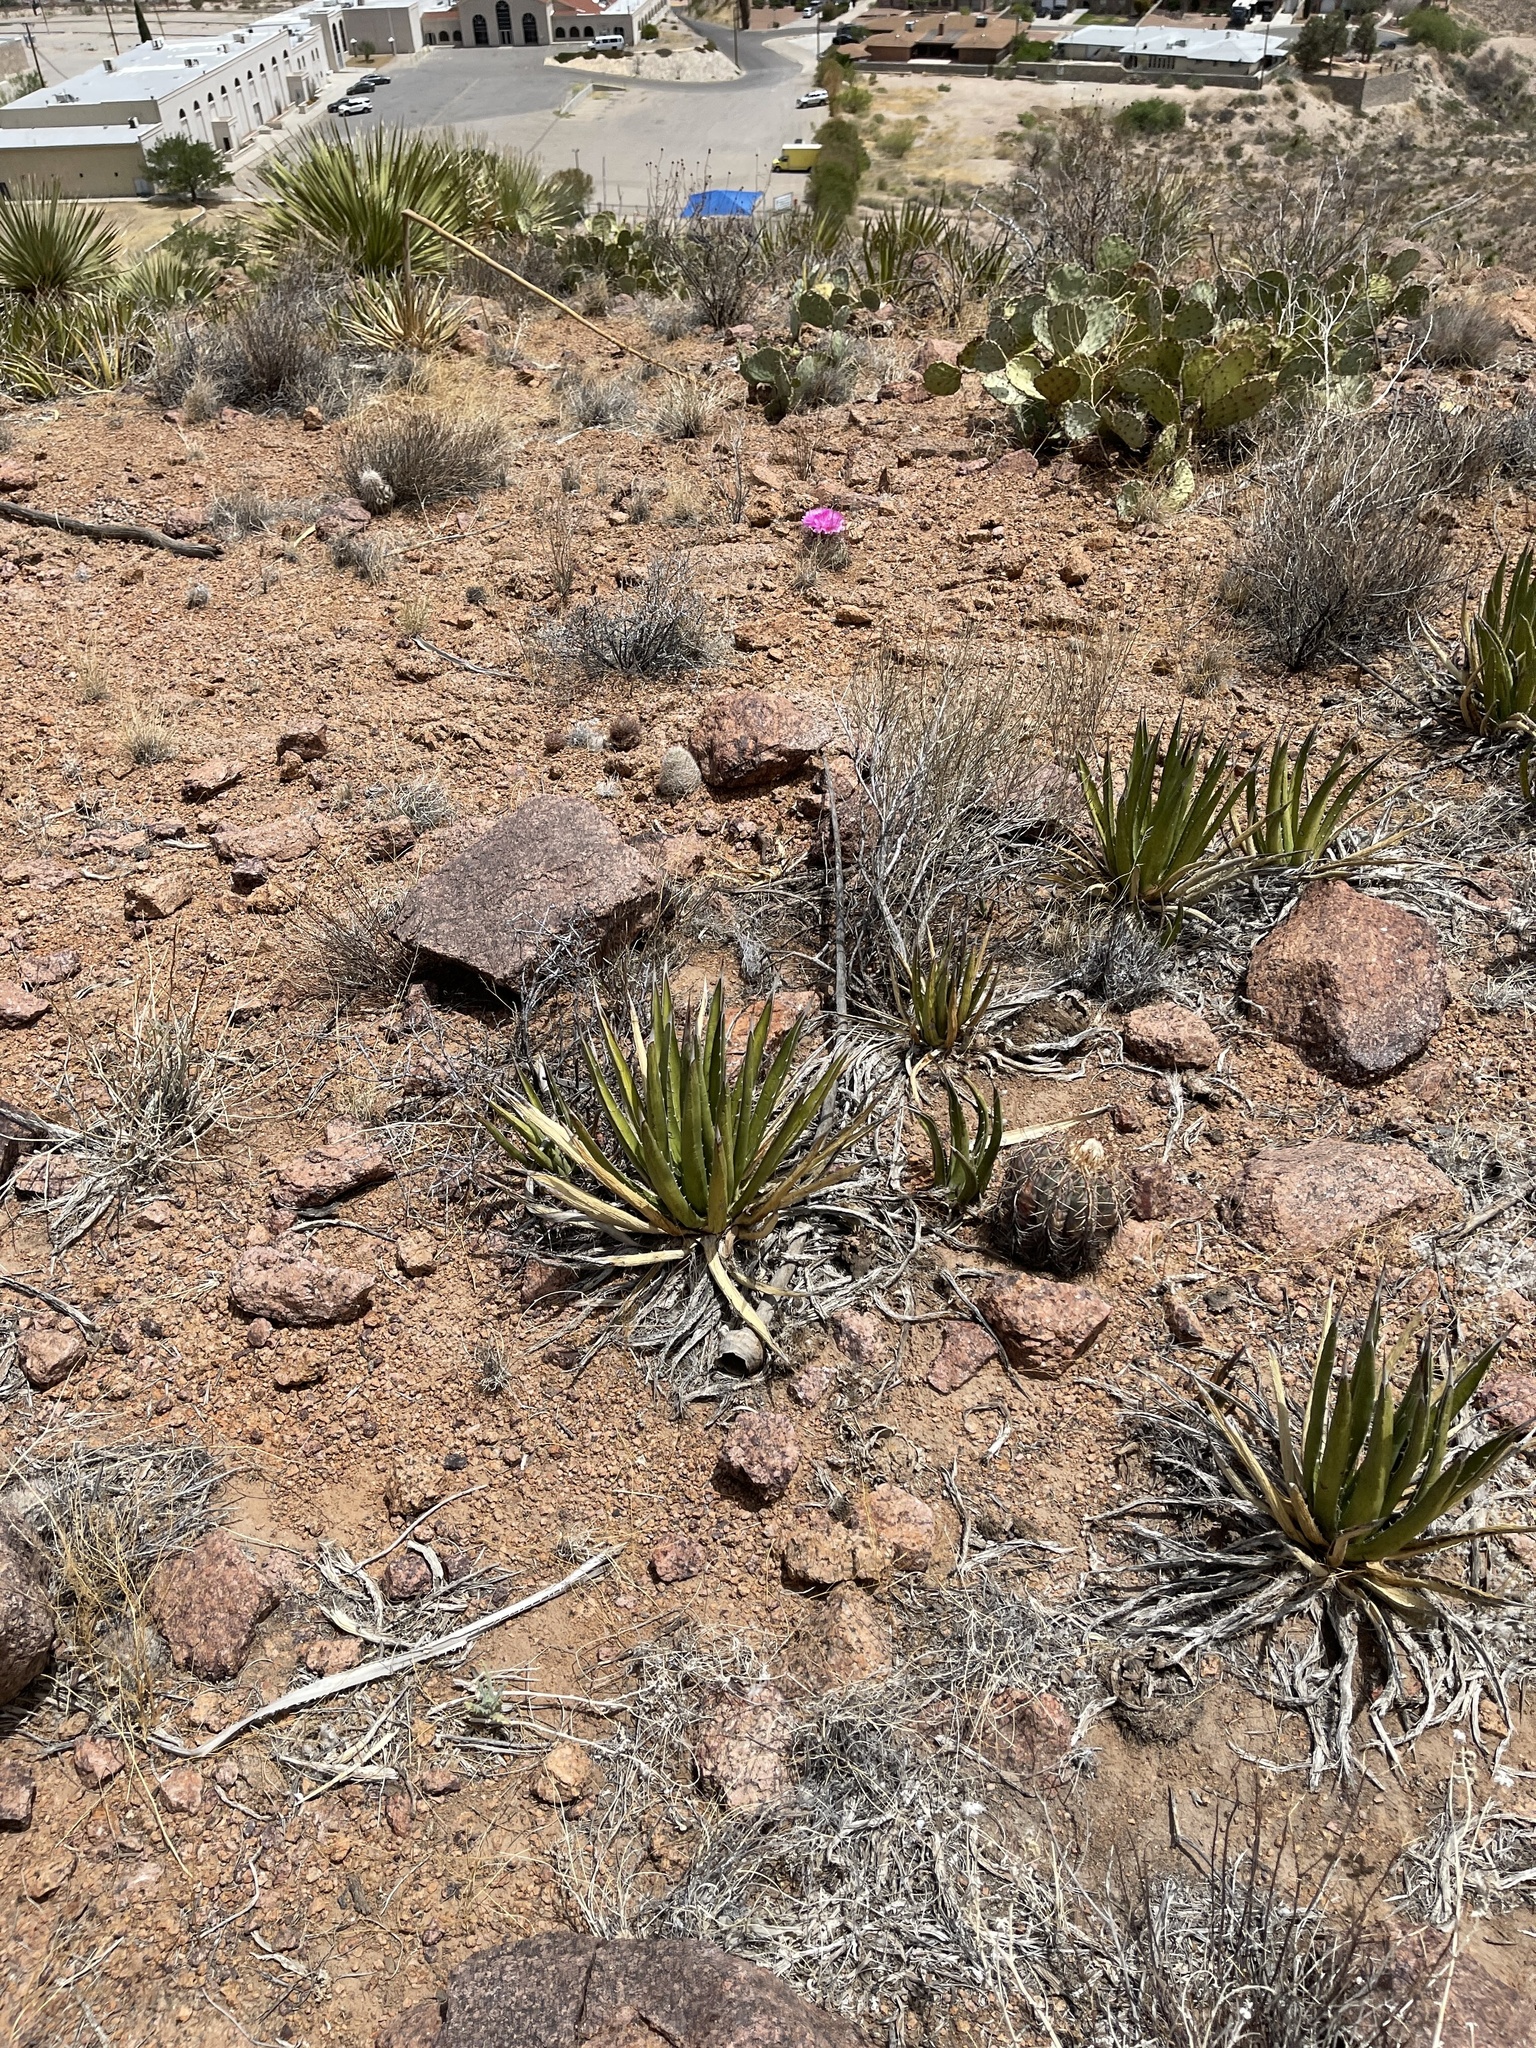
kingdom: Plantae
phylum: Tracheophyta
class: Liliopsida
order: Asparagales
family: Asparagaceae
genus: Agave
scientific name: Agave lechuguilla
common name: Lecheguilla agave
